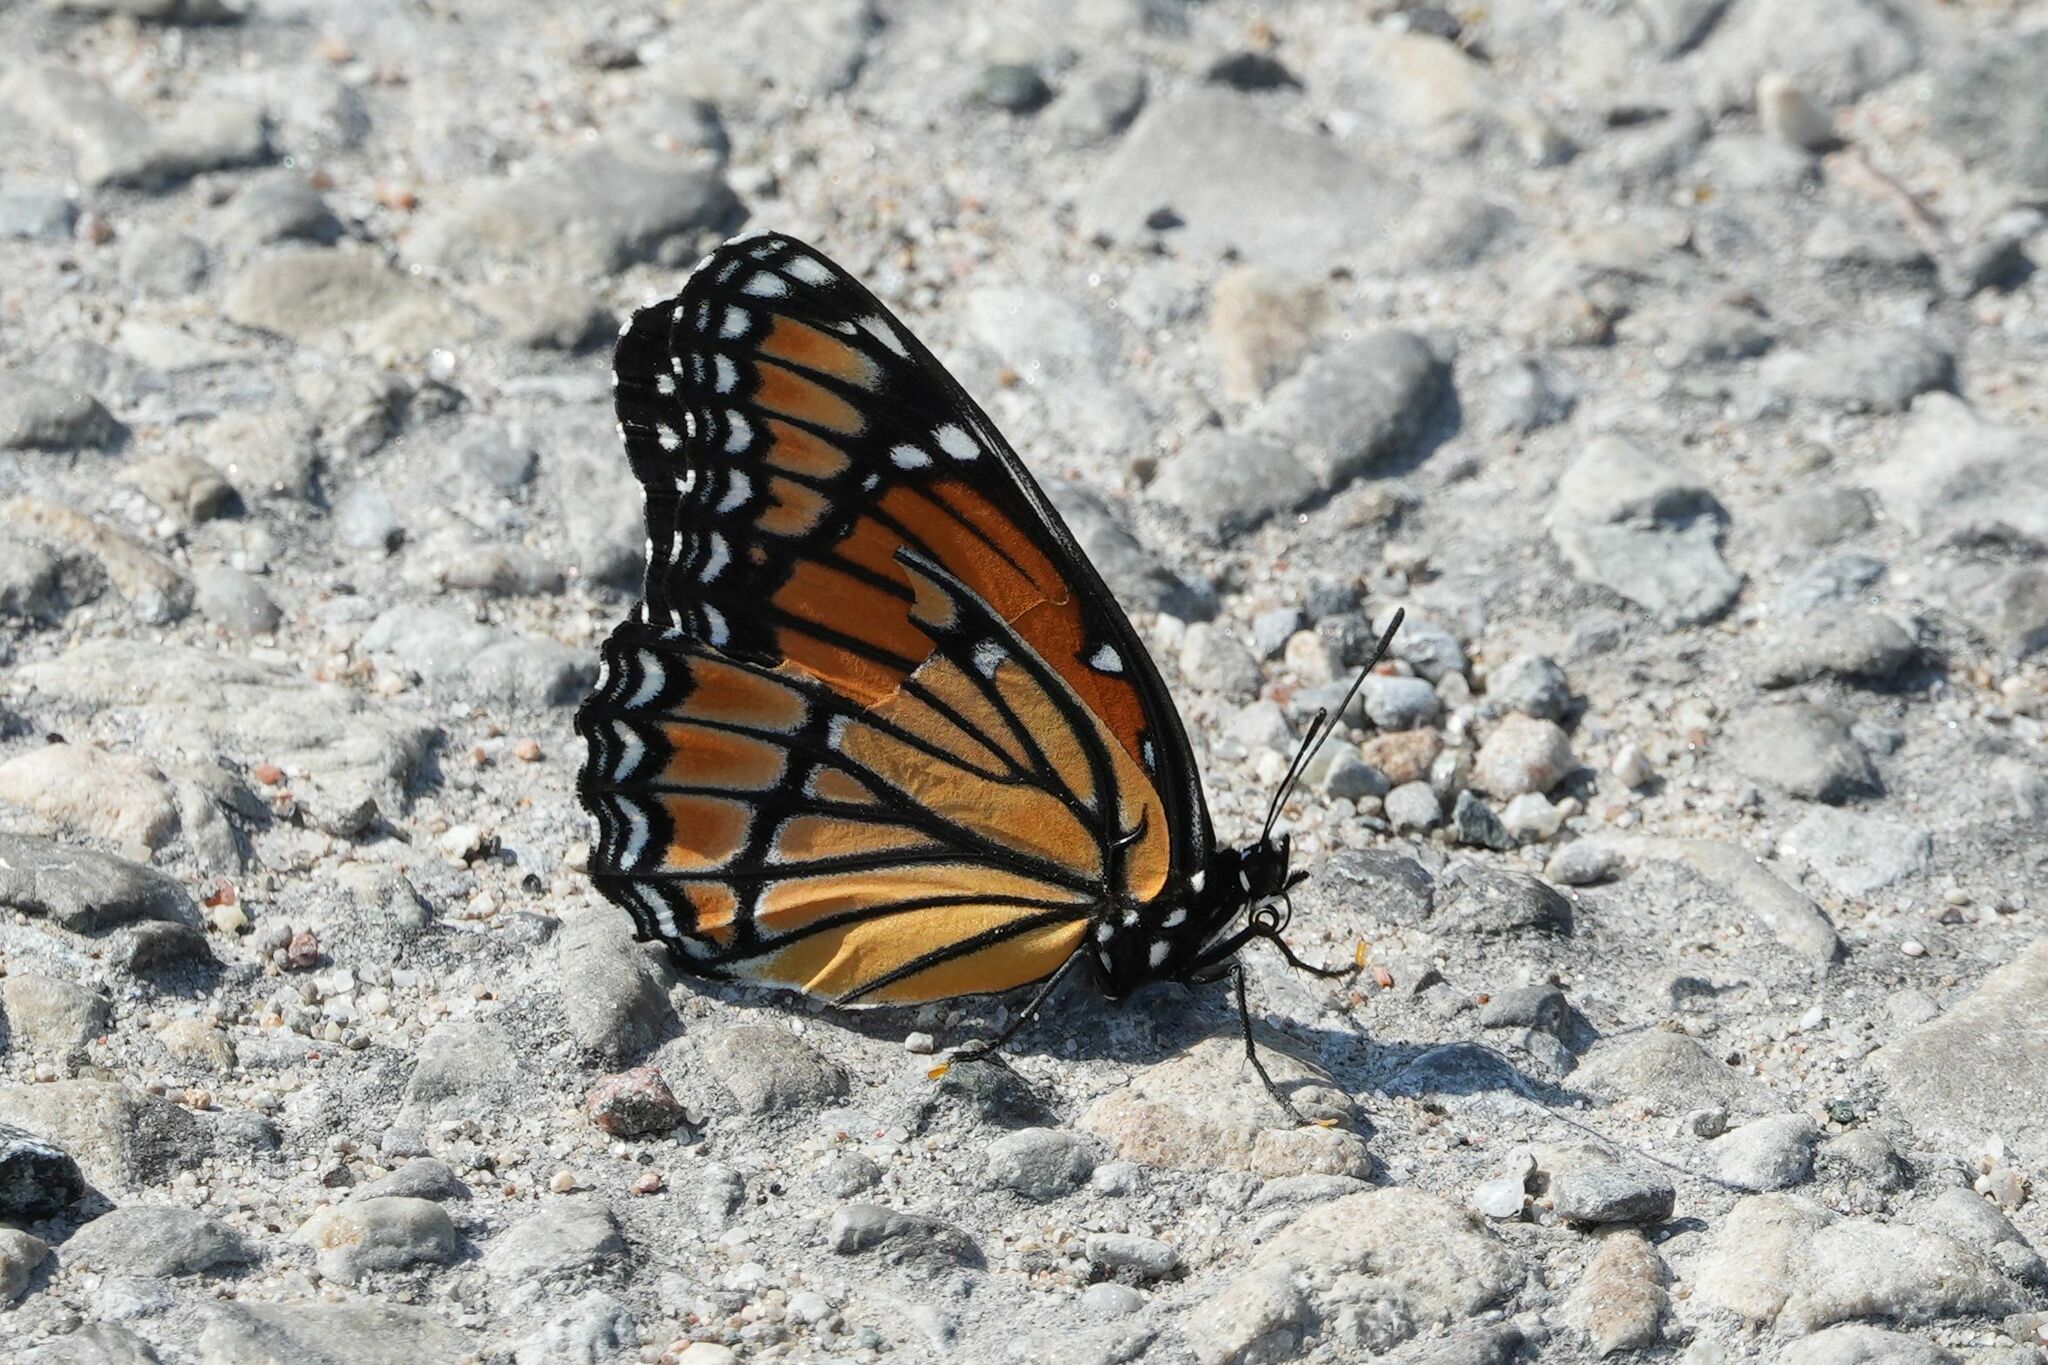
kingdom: Animalia
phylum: Arthropoda
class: Insecta
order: Lepidoptera
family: Nymphalidae
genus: Limenitis
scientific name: Limenitis archippus
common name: Viceroy
